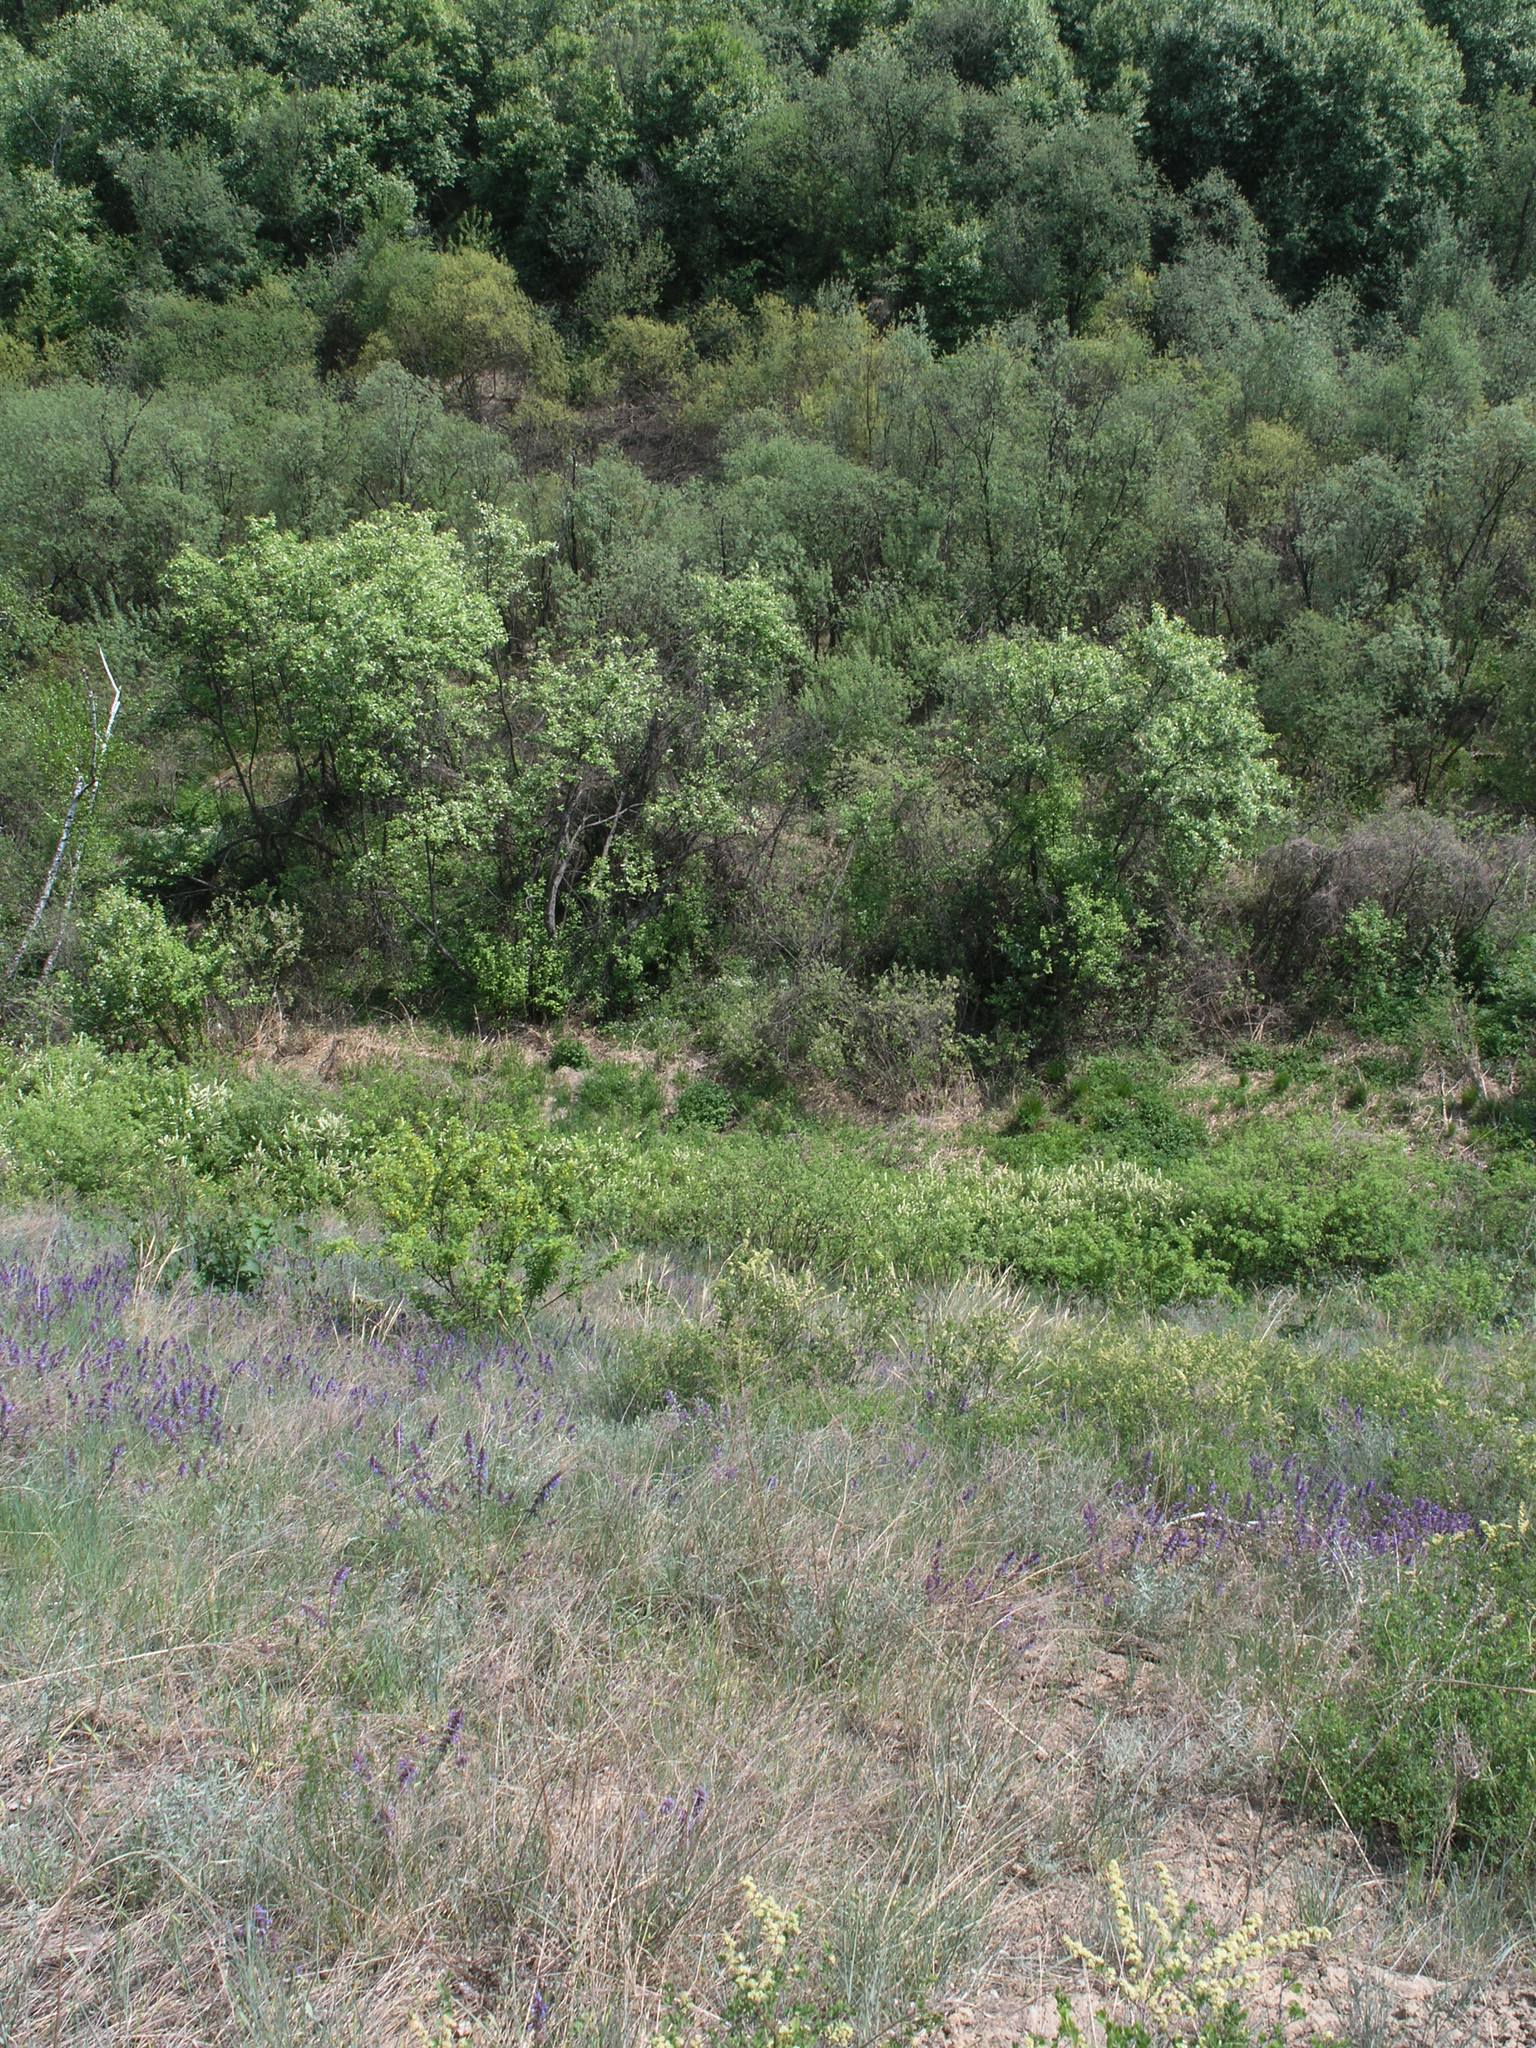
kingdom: Plantae
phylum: Tracheophyta
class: Magnoliopsida
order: Lamiales
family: Lamiaceae
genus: Dracocephalum
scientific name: Dracocephalum nutans
